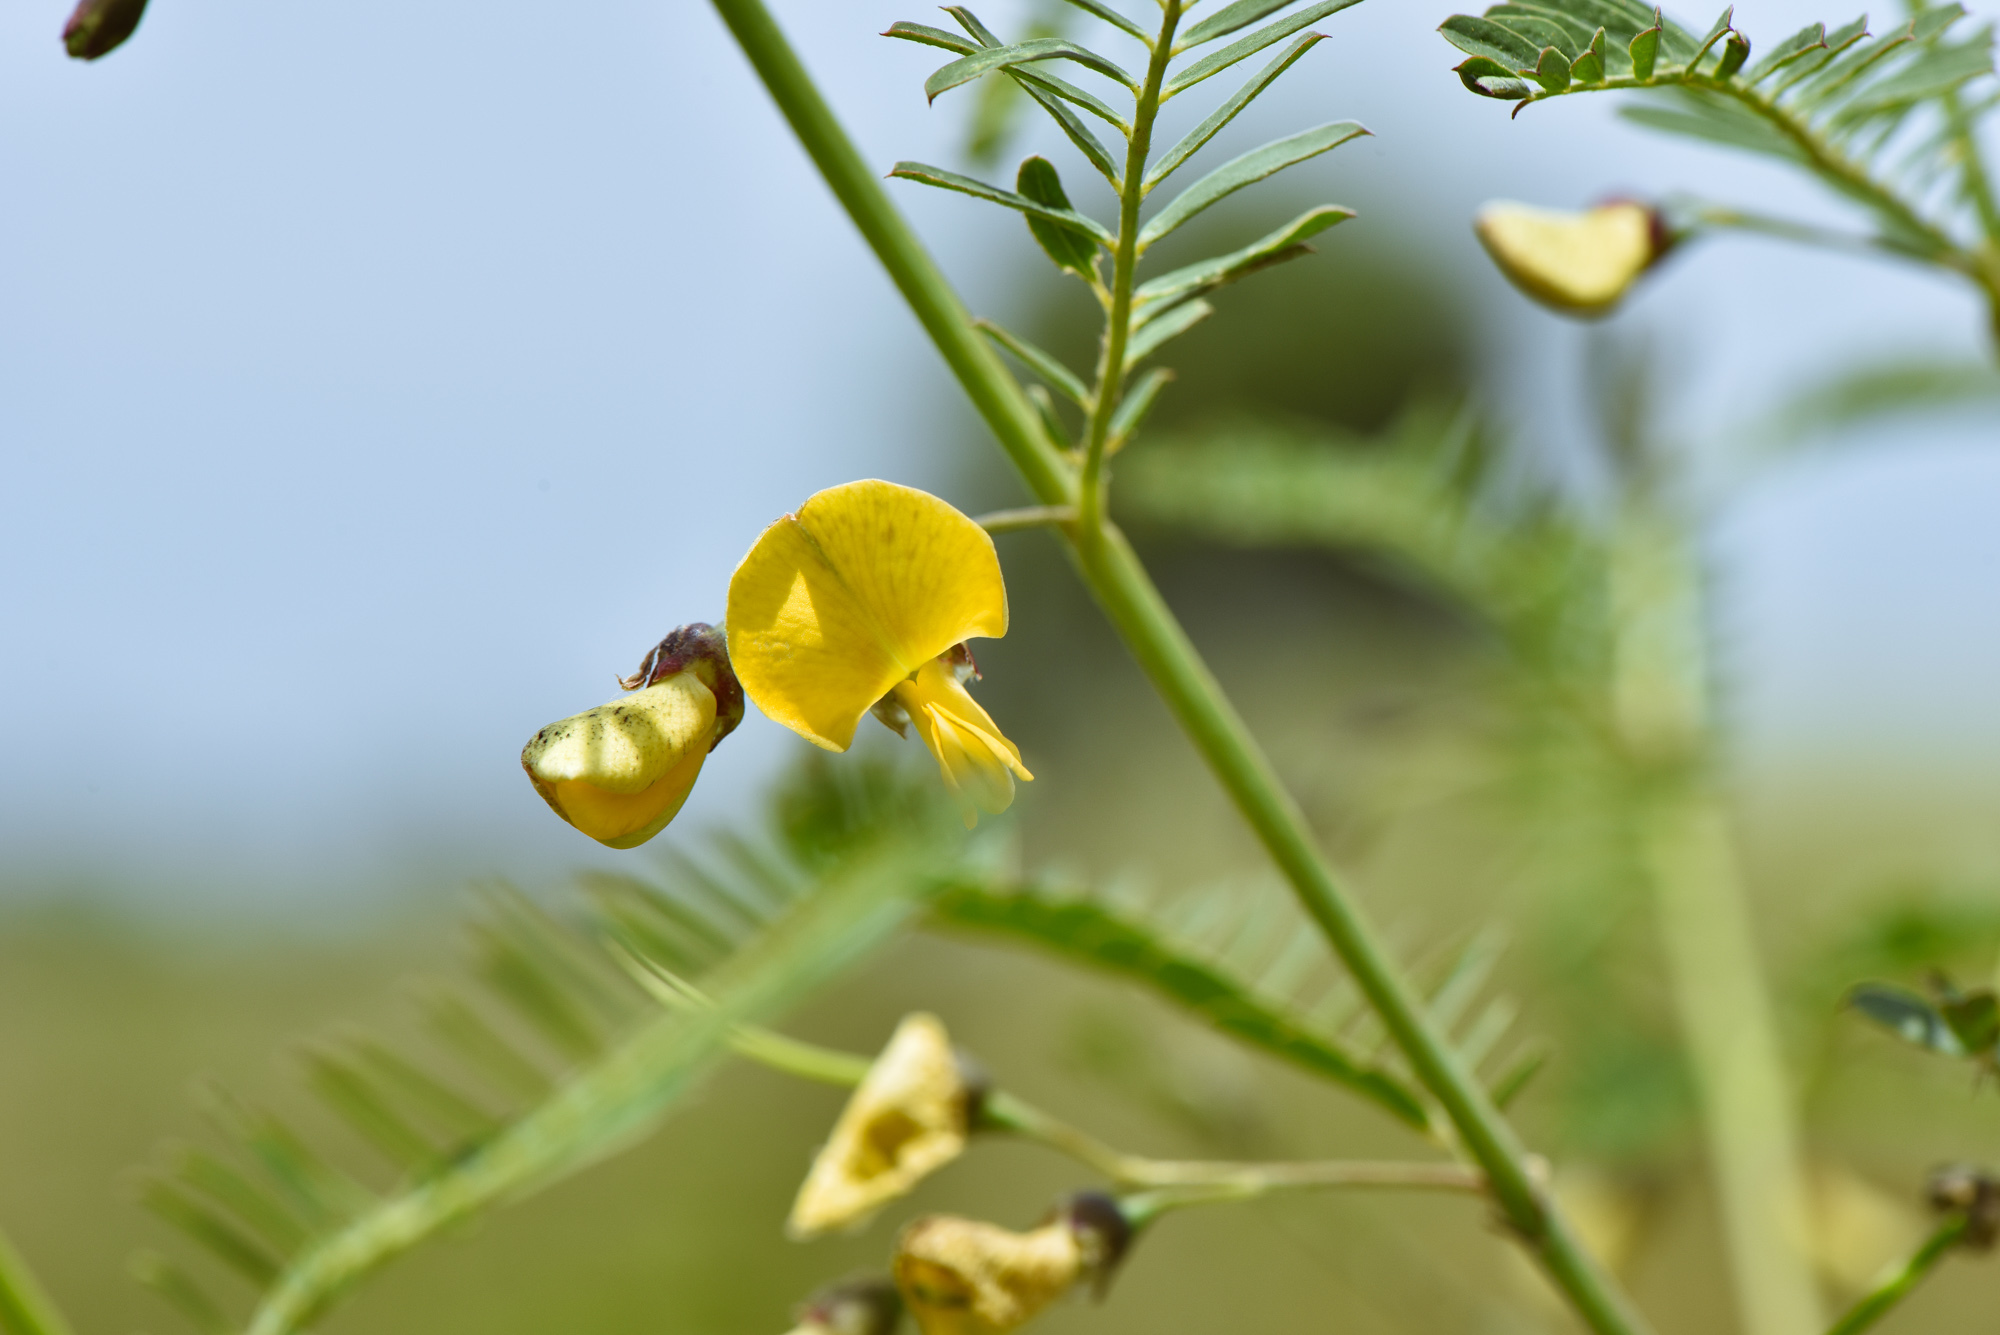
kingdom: Plantae
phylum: Tracheophyta
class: Magnoliopsida
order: Fabales
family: Fabaceae
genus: Sesbania
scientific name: Sesbania cannabina
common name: Canicha
